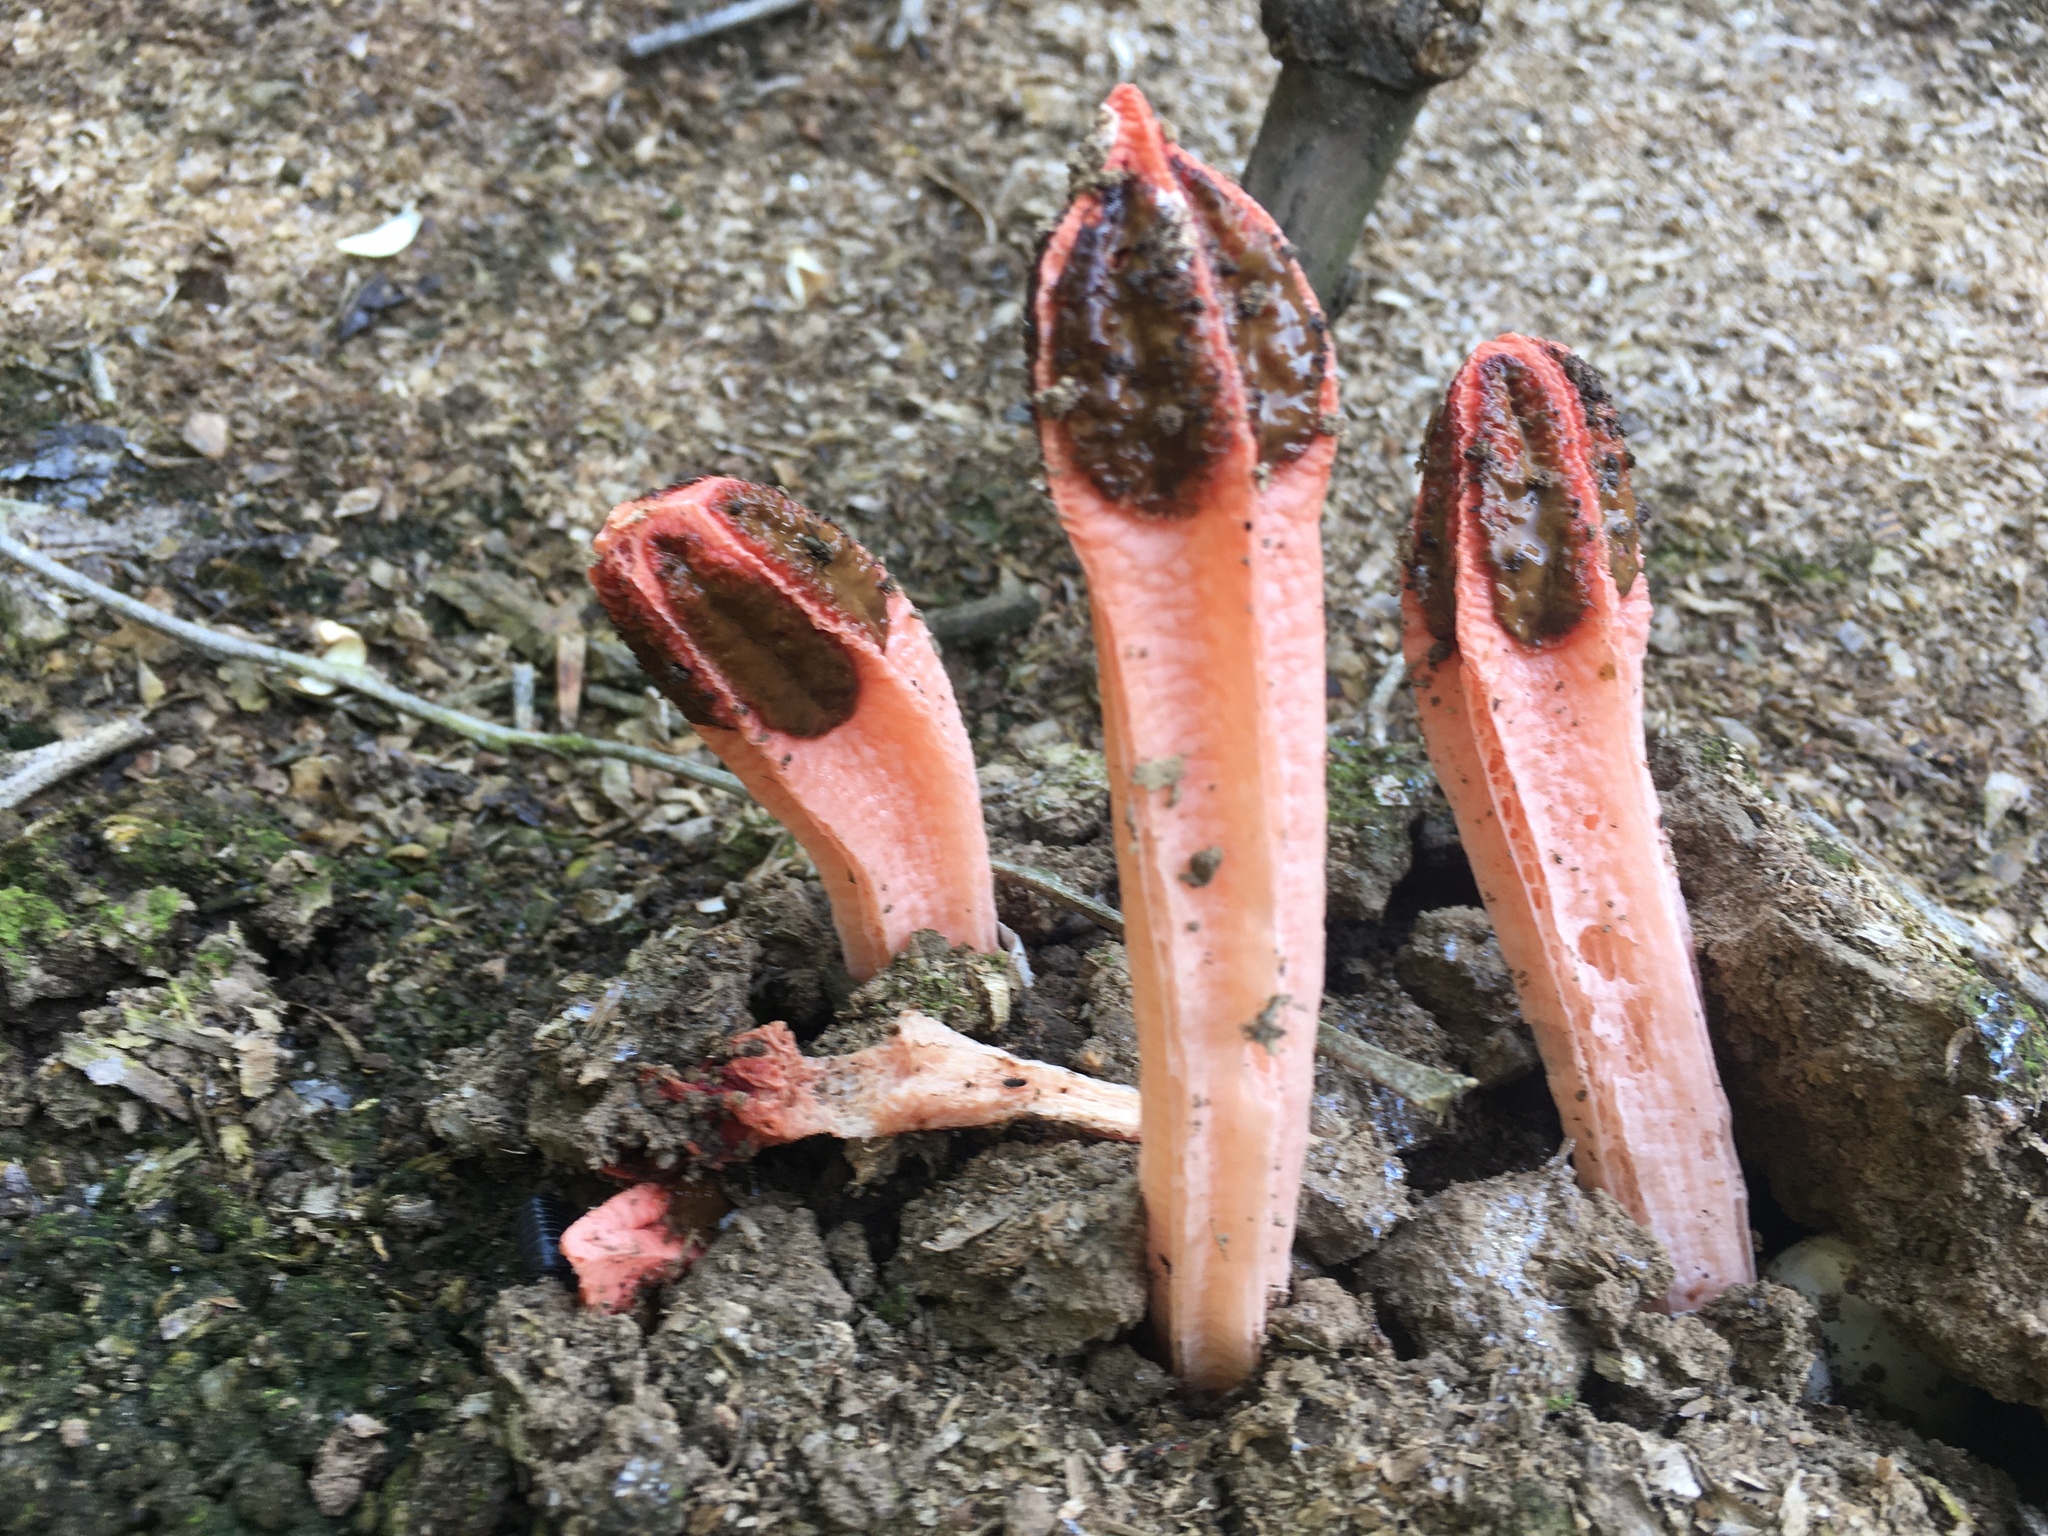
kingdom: Fungi
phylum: Basidiomycota
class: Agaricomycetes
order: Phallales
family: Phallaceae
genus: Lysurus
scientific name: Lysurus mokusin
